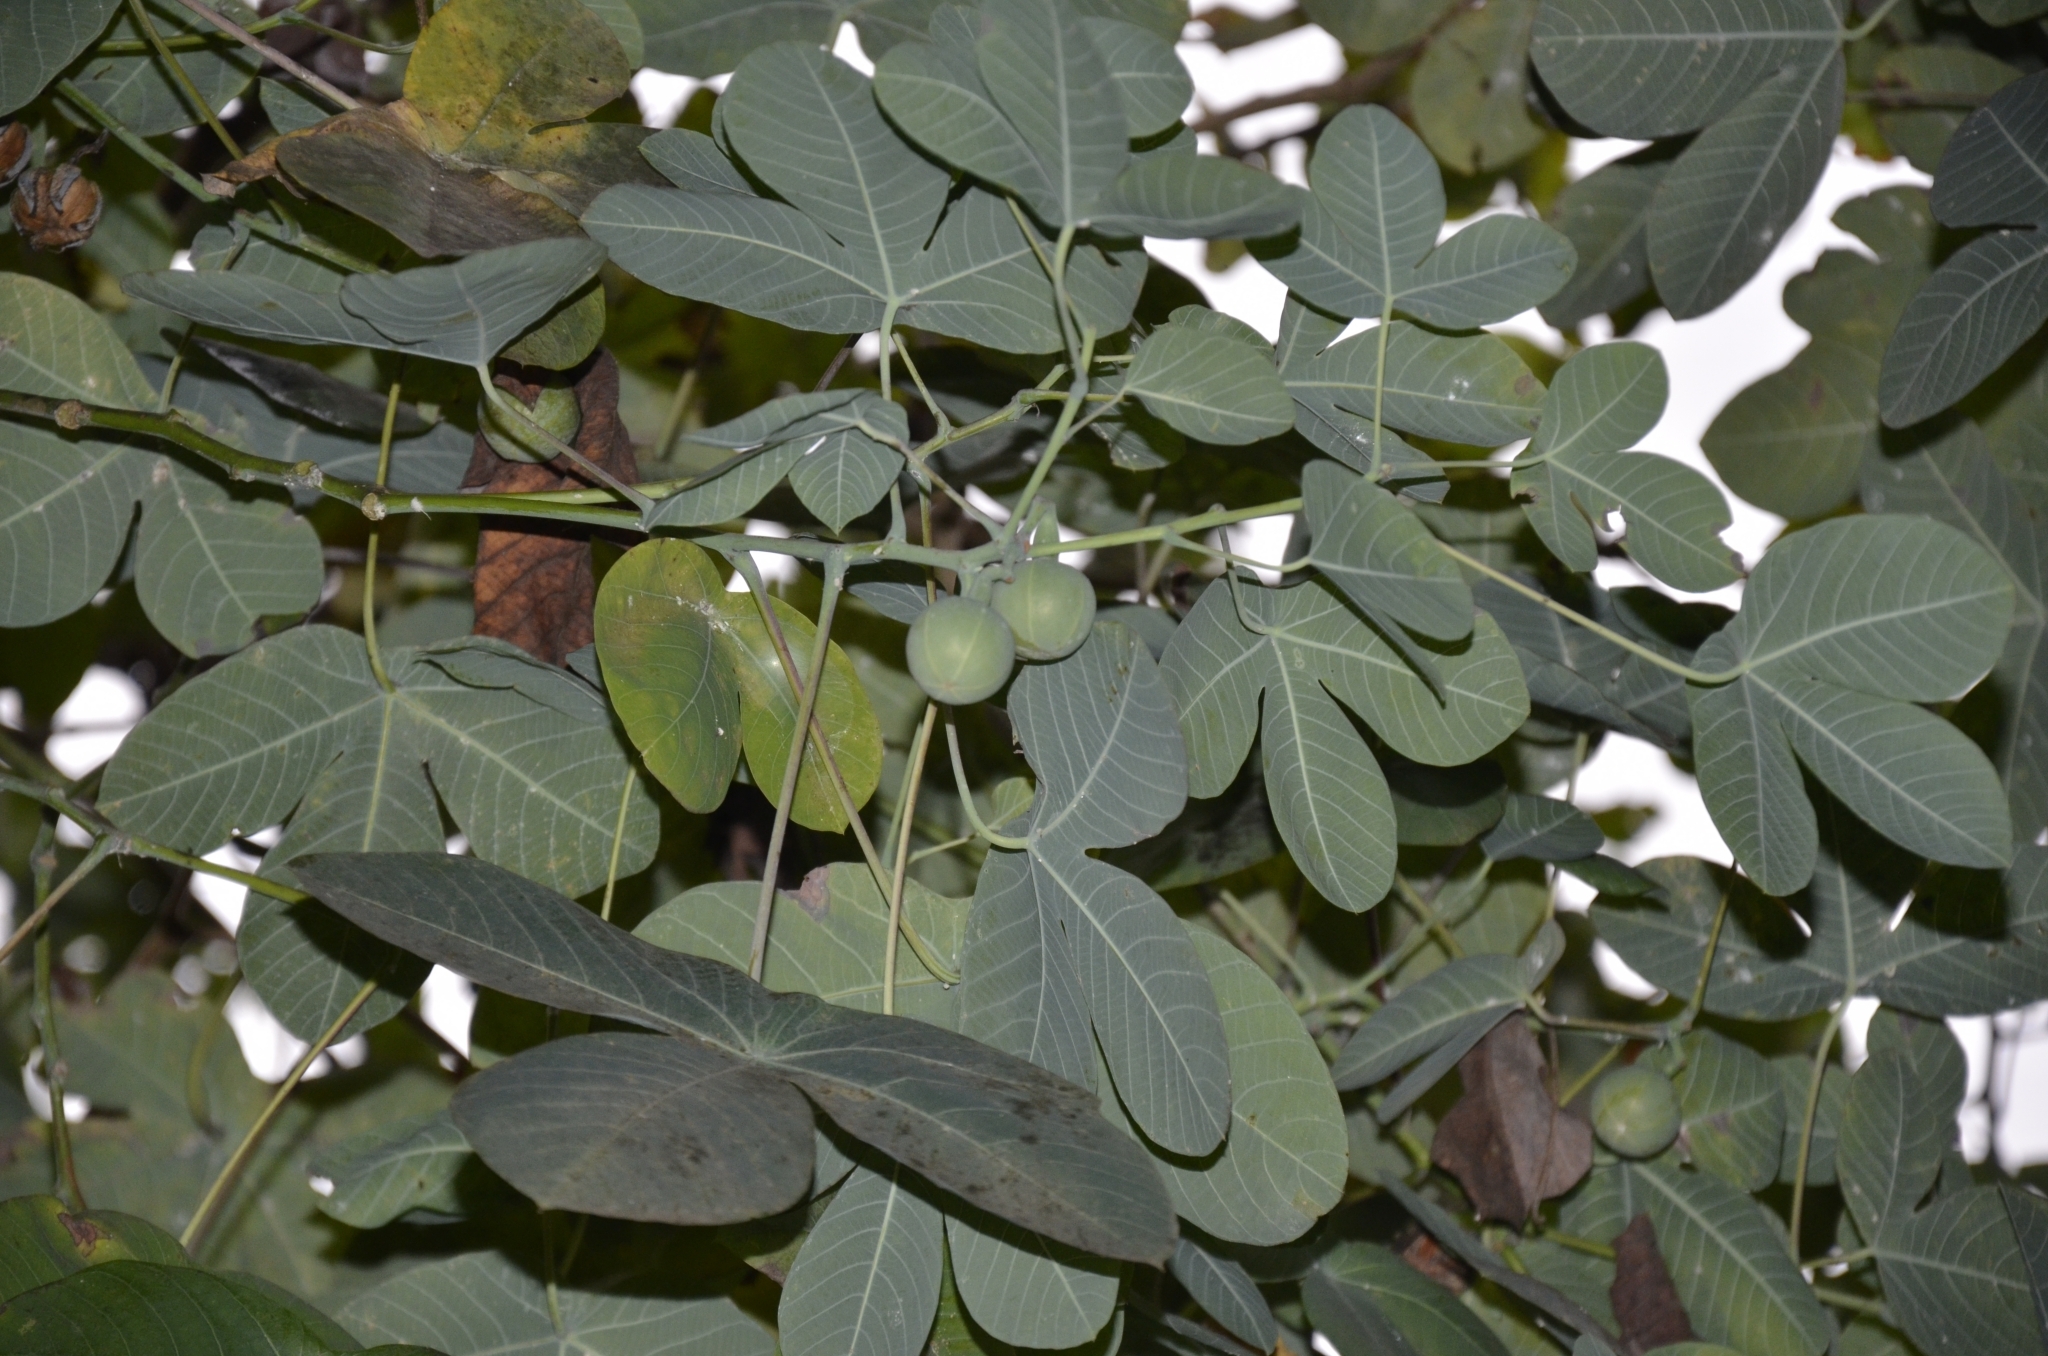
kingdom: Plantae
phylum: Tracheophyta
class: Magnoliopsida
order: Malpighiales
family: Euphorbiaceae
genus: Manihot
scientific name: Manihot carthagenensis
